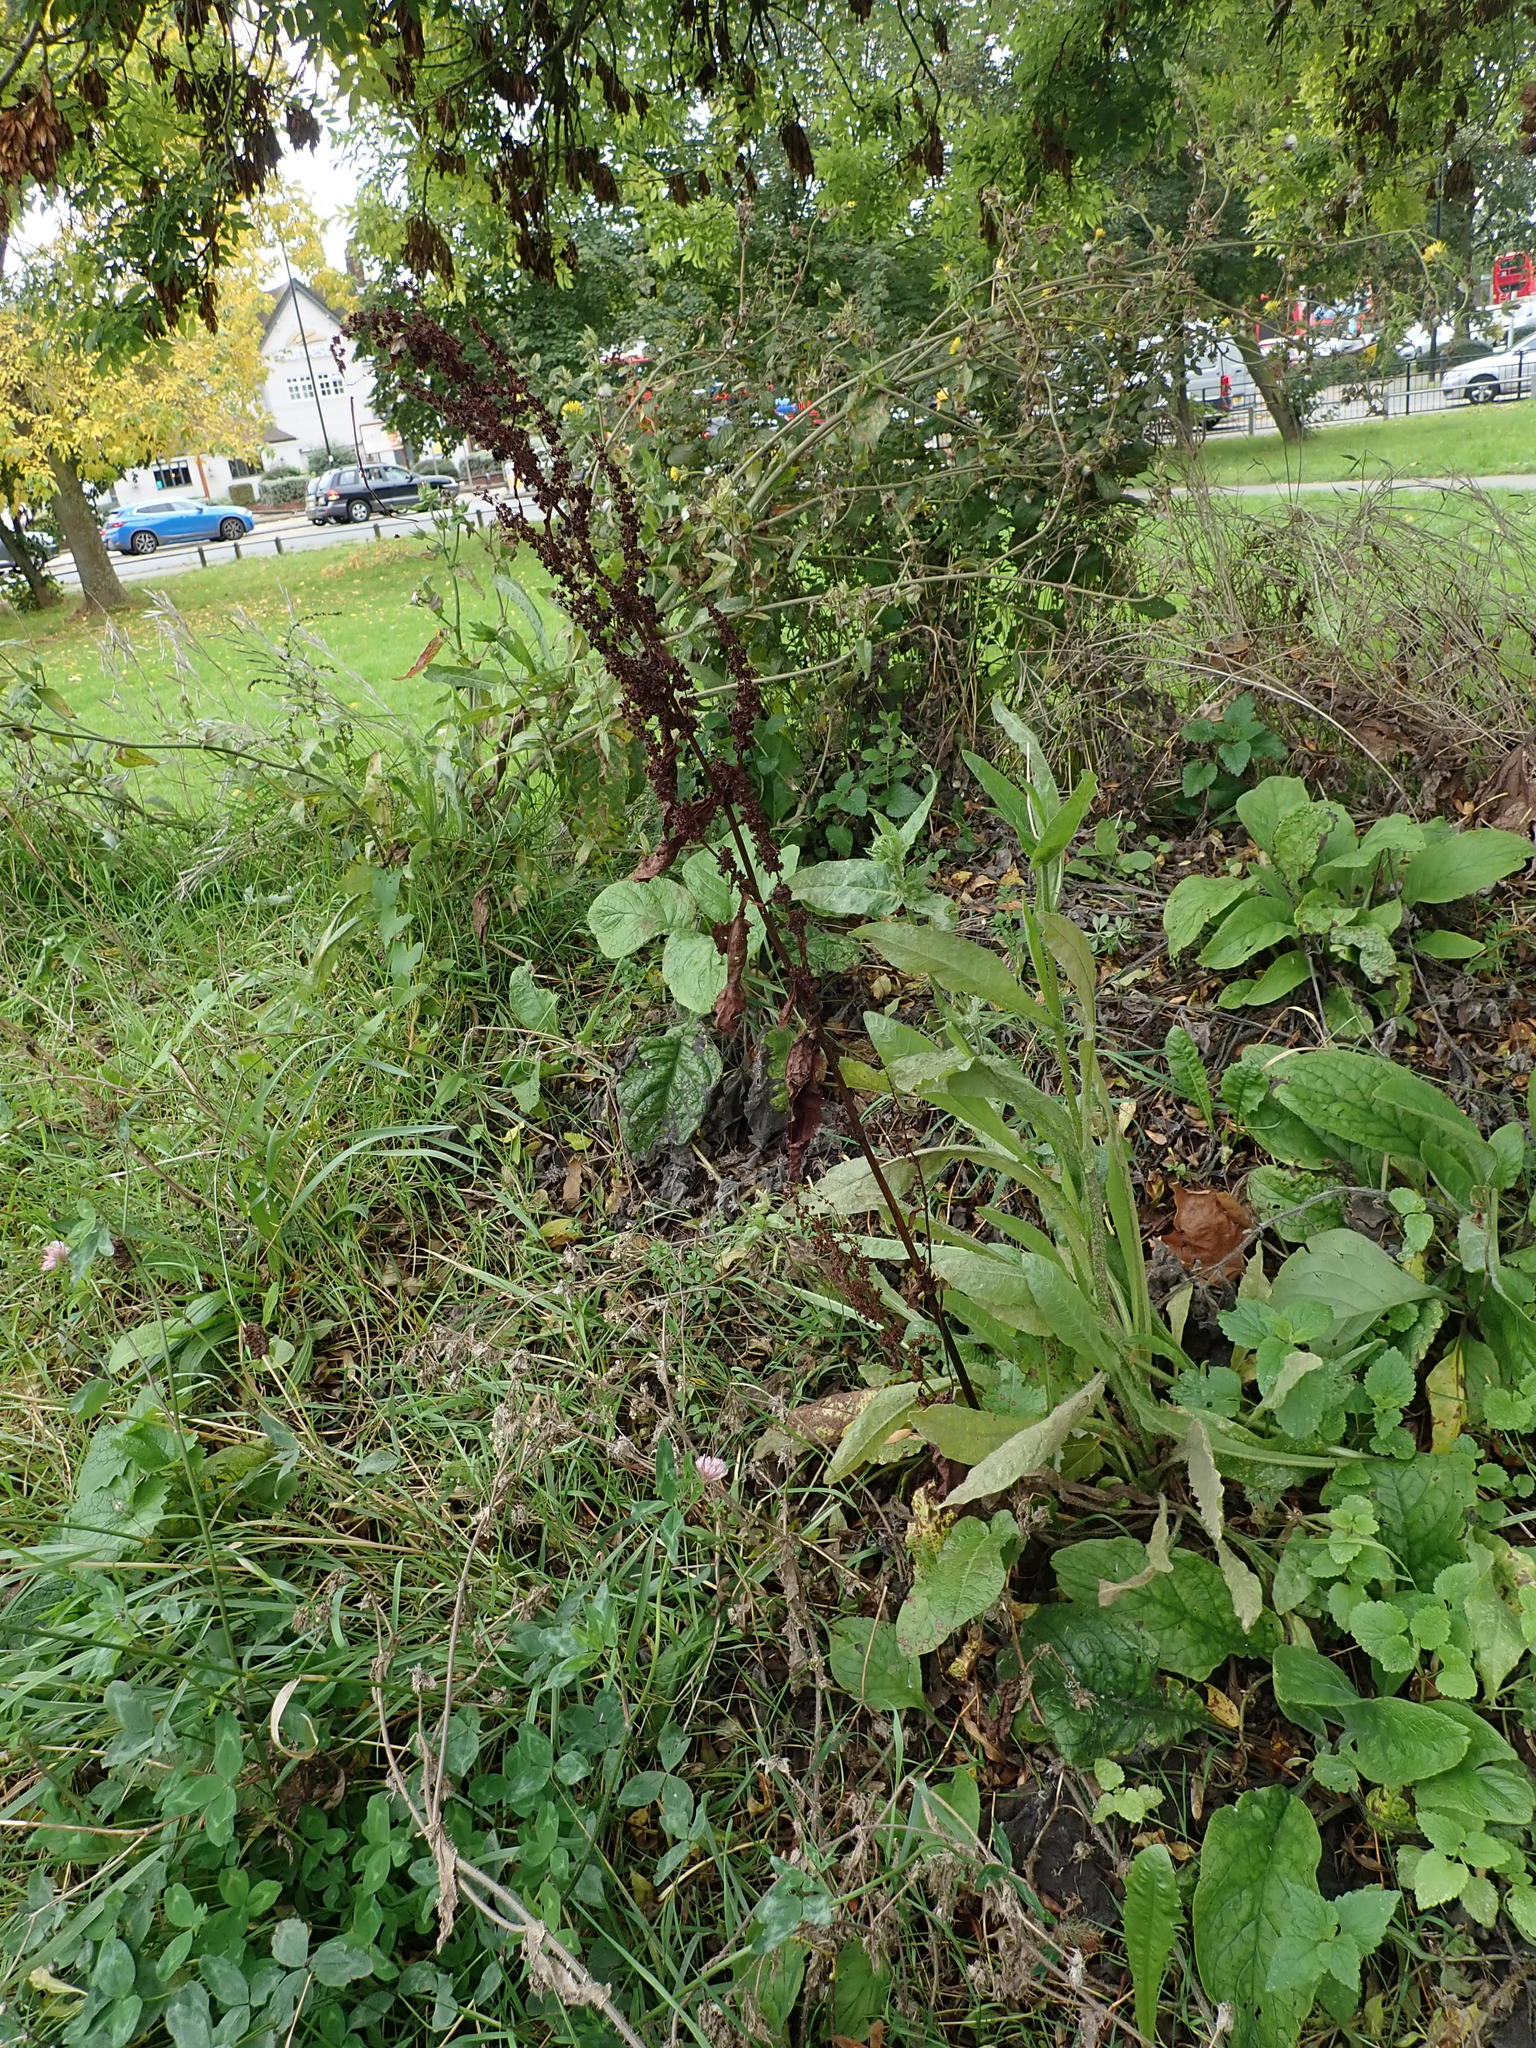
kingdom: Plantae
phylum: Tracheophyta
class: Magnoliopsida
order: Caryophyllales
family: Polygonaceae
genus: Rumex
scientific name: Rumex obtusifolius
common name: Bitter dock
